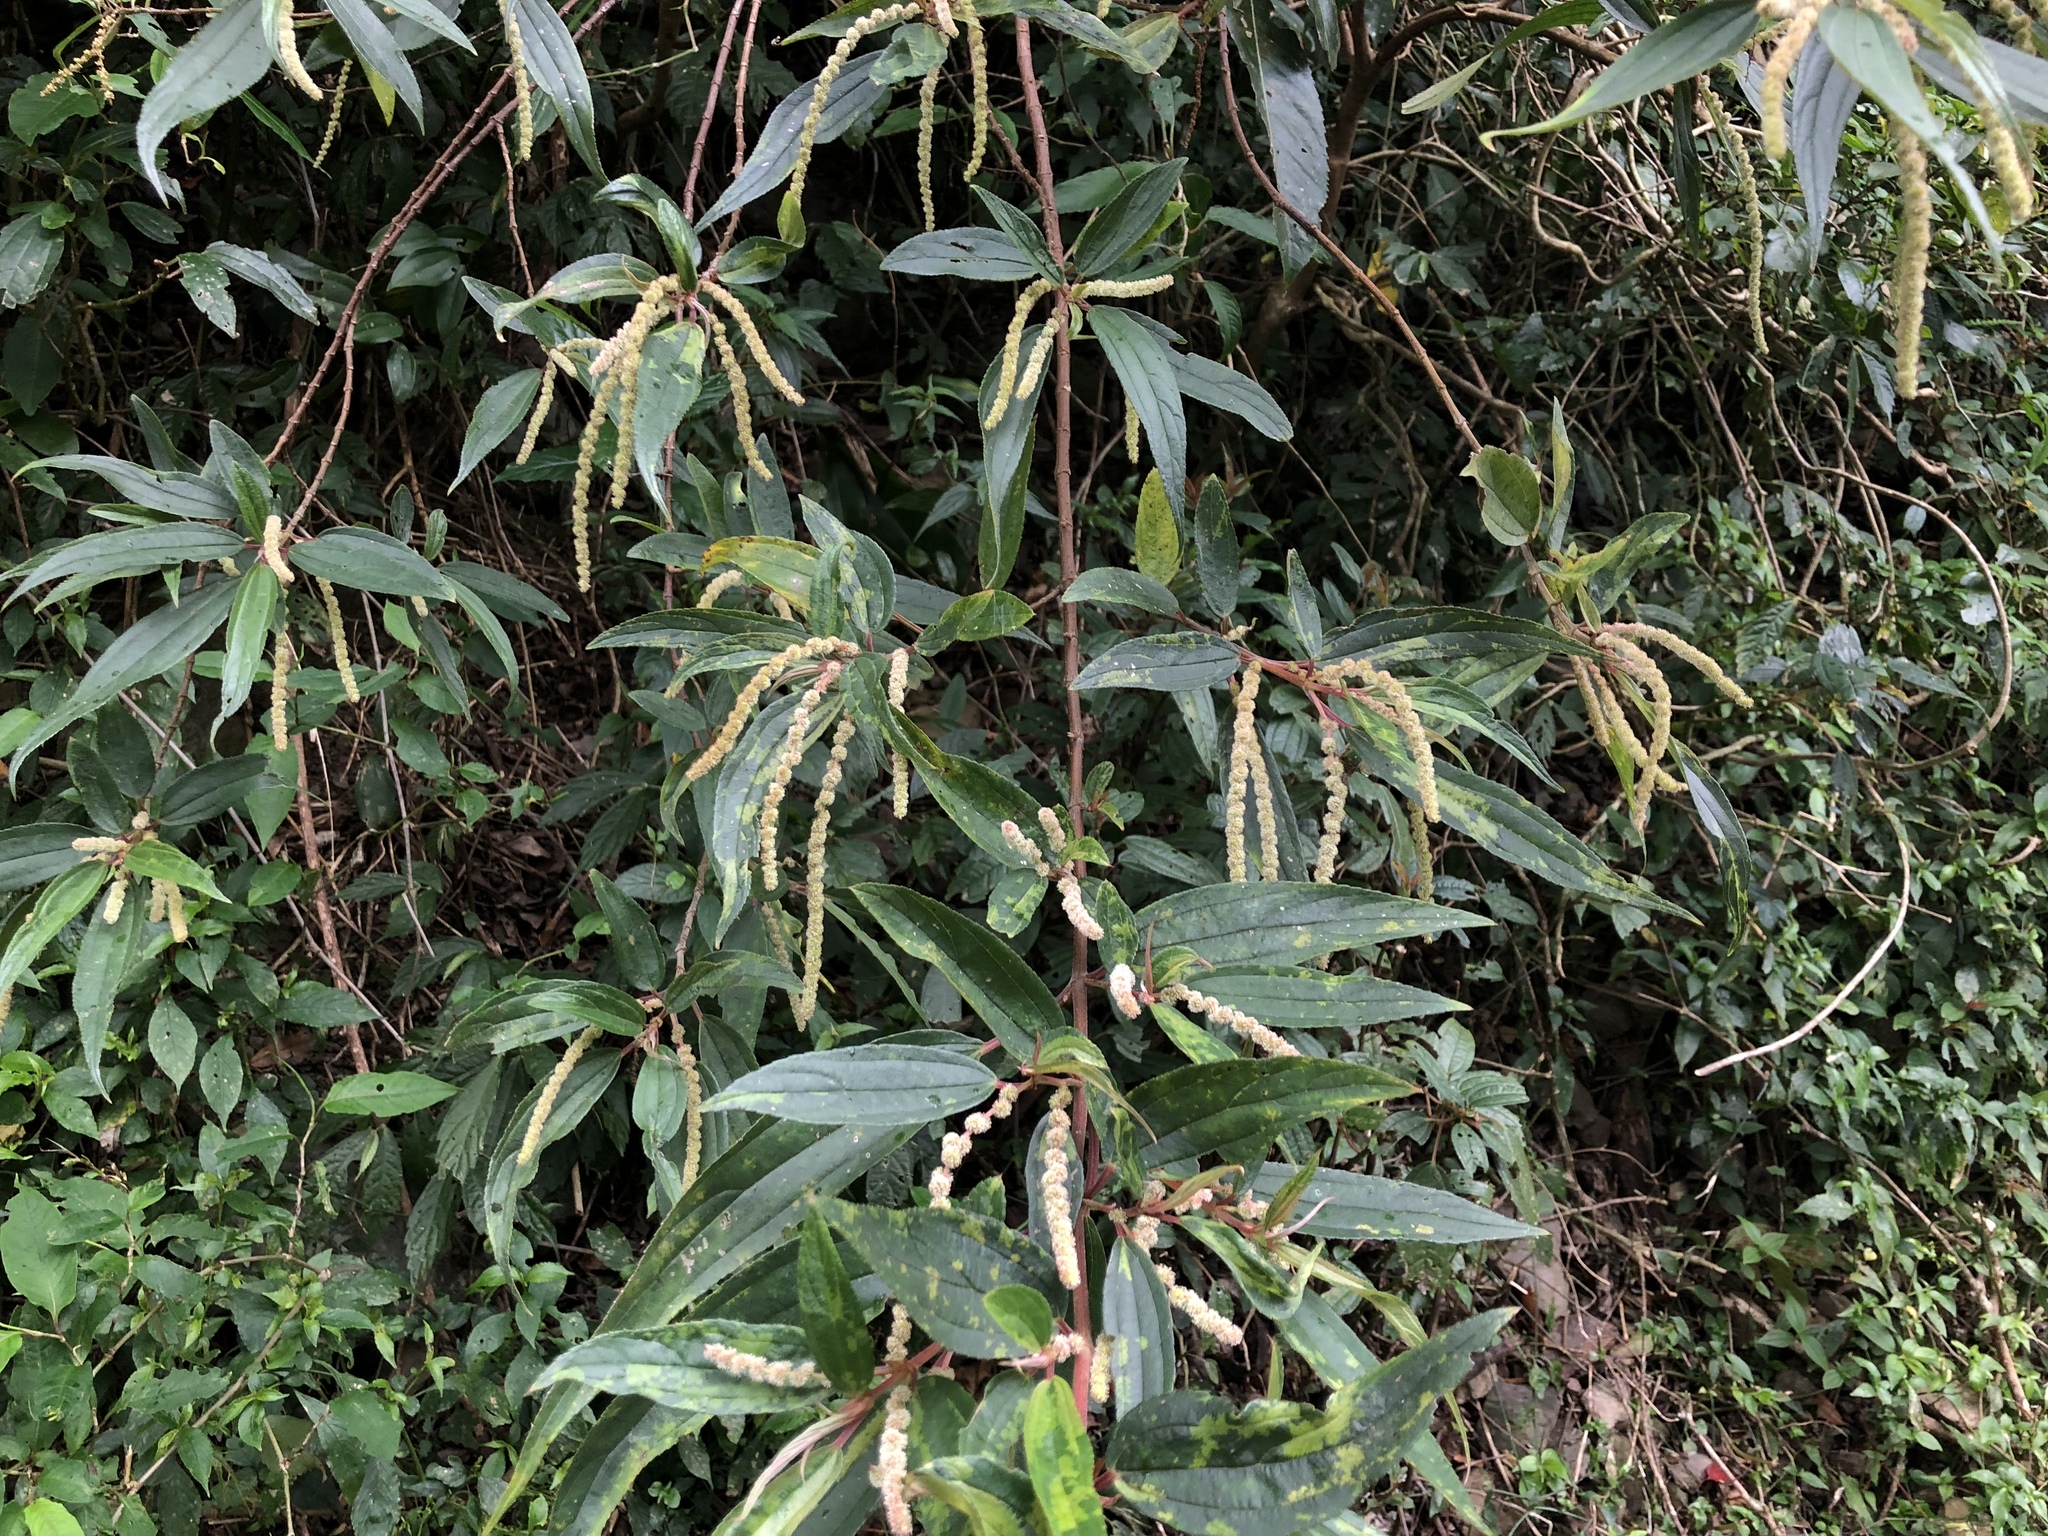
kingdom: Plantae
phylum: Tracheophyta
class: Magnoliopsida
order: Rosales
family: Urticaceae
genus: Boehmeria
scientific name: Boehmeria densiflora
